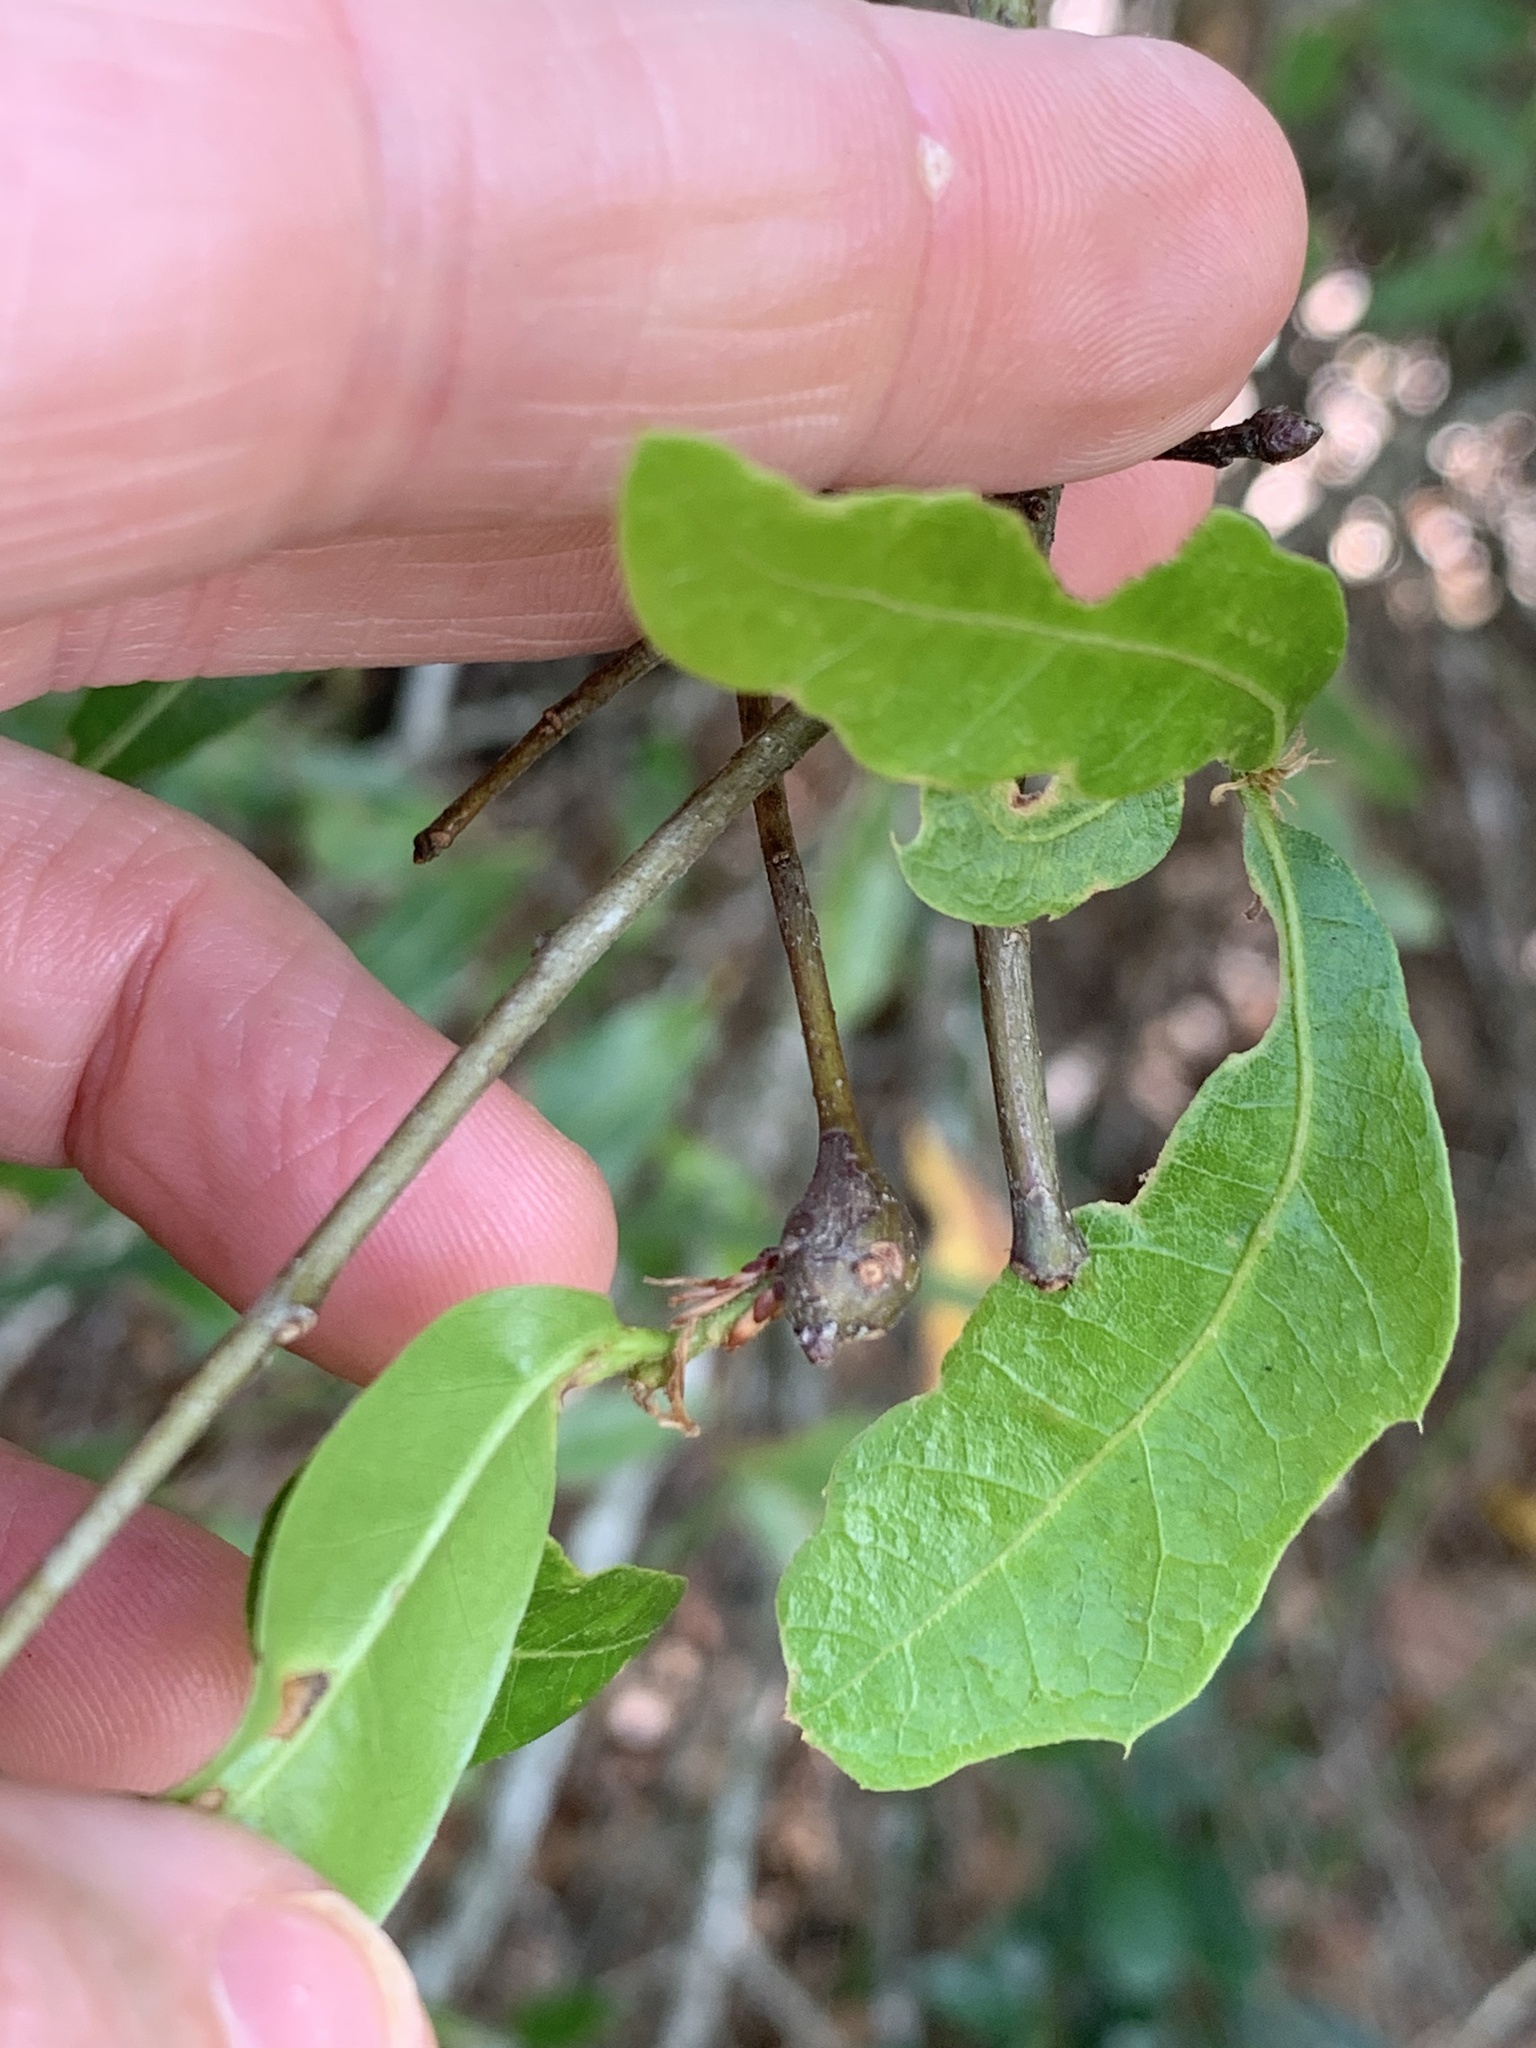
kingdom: Animalia
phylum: Arthropoda
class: Insecta
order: Hymenoptera
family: Cynipidae
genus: Zapatella
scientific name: Zapatella quercusphellos
